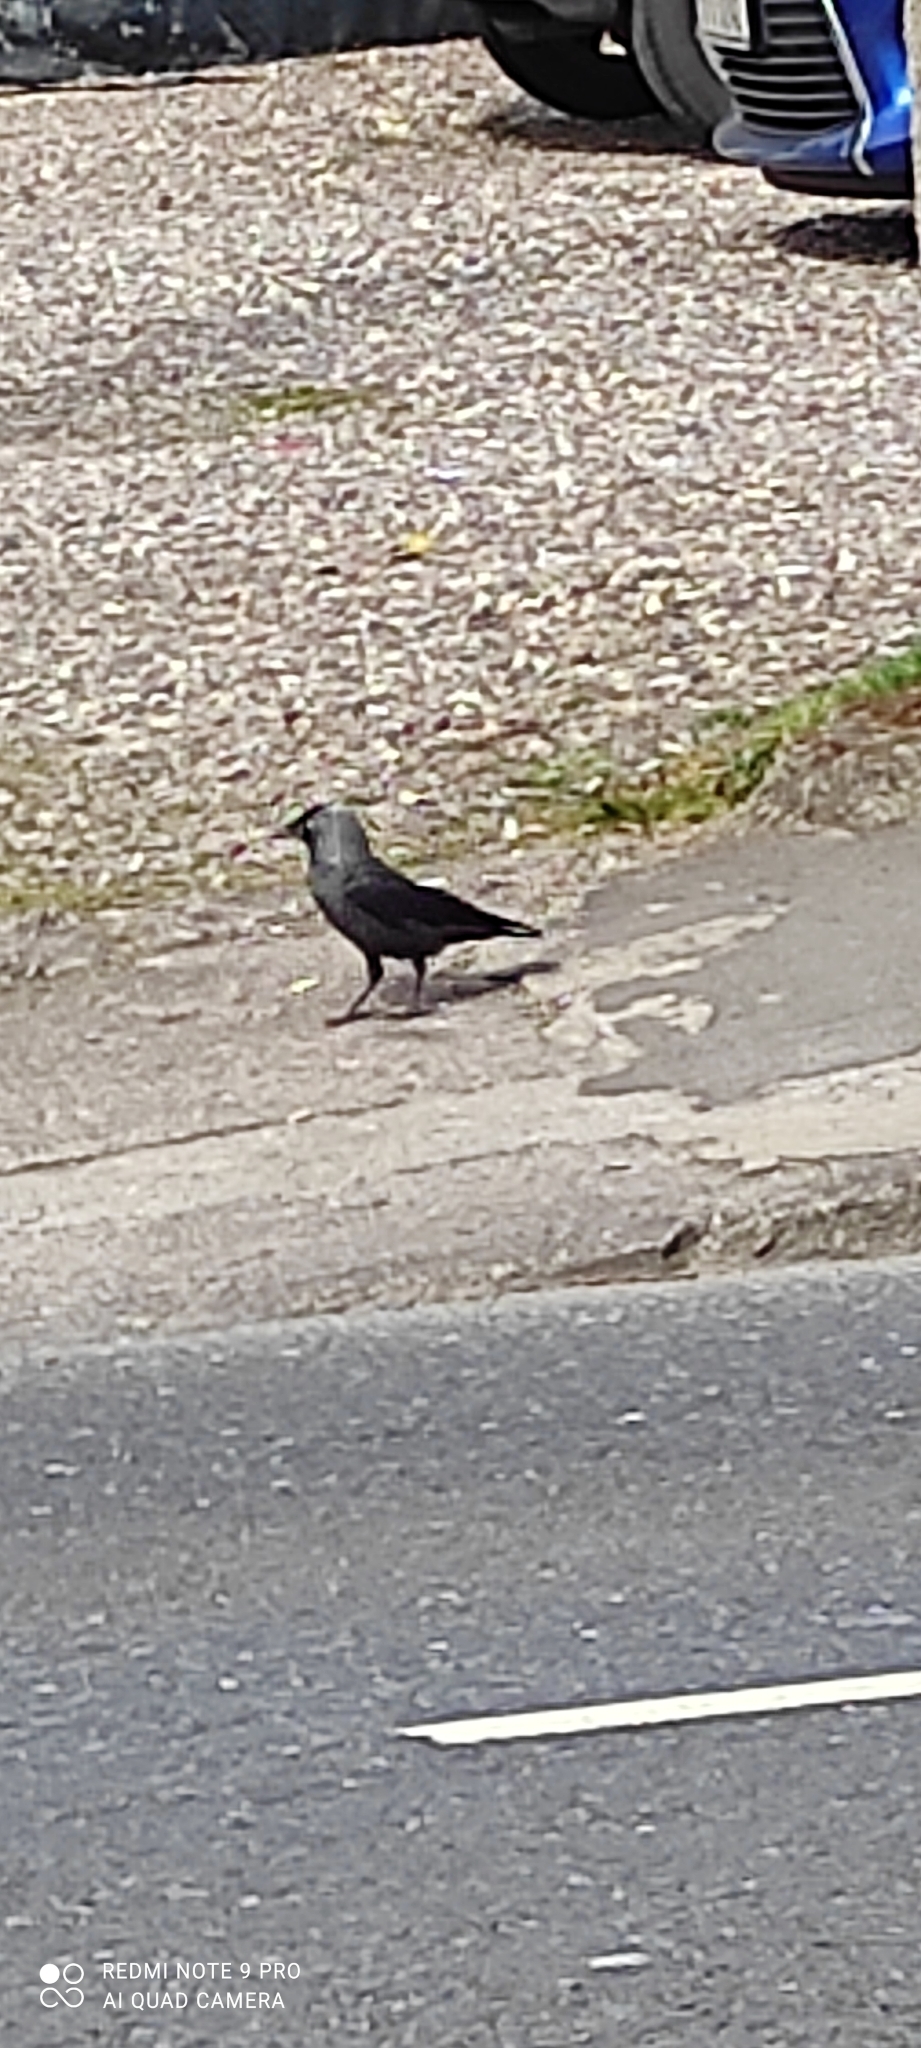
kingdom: Animalia
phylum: Chordata
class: Aves
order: Passeriformes
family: Corvidae
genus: Coloeus
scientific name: Coloeus monedula
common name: Western jackdaw
